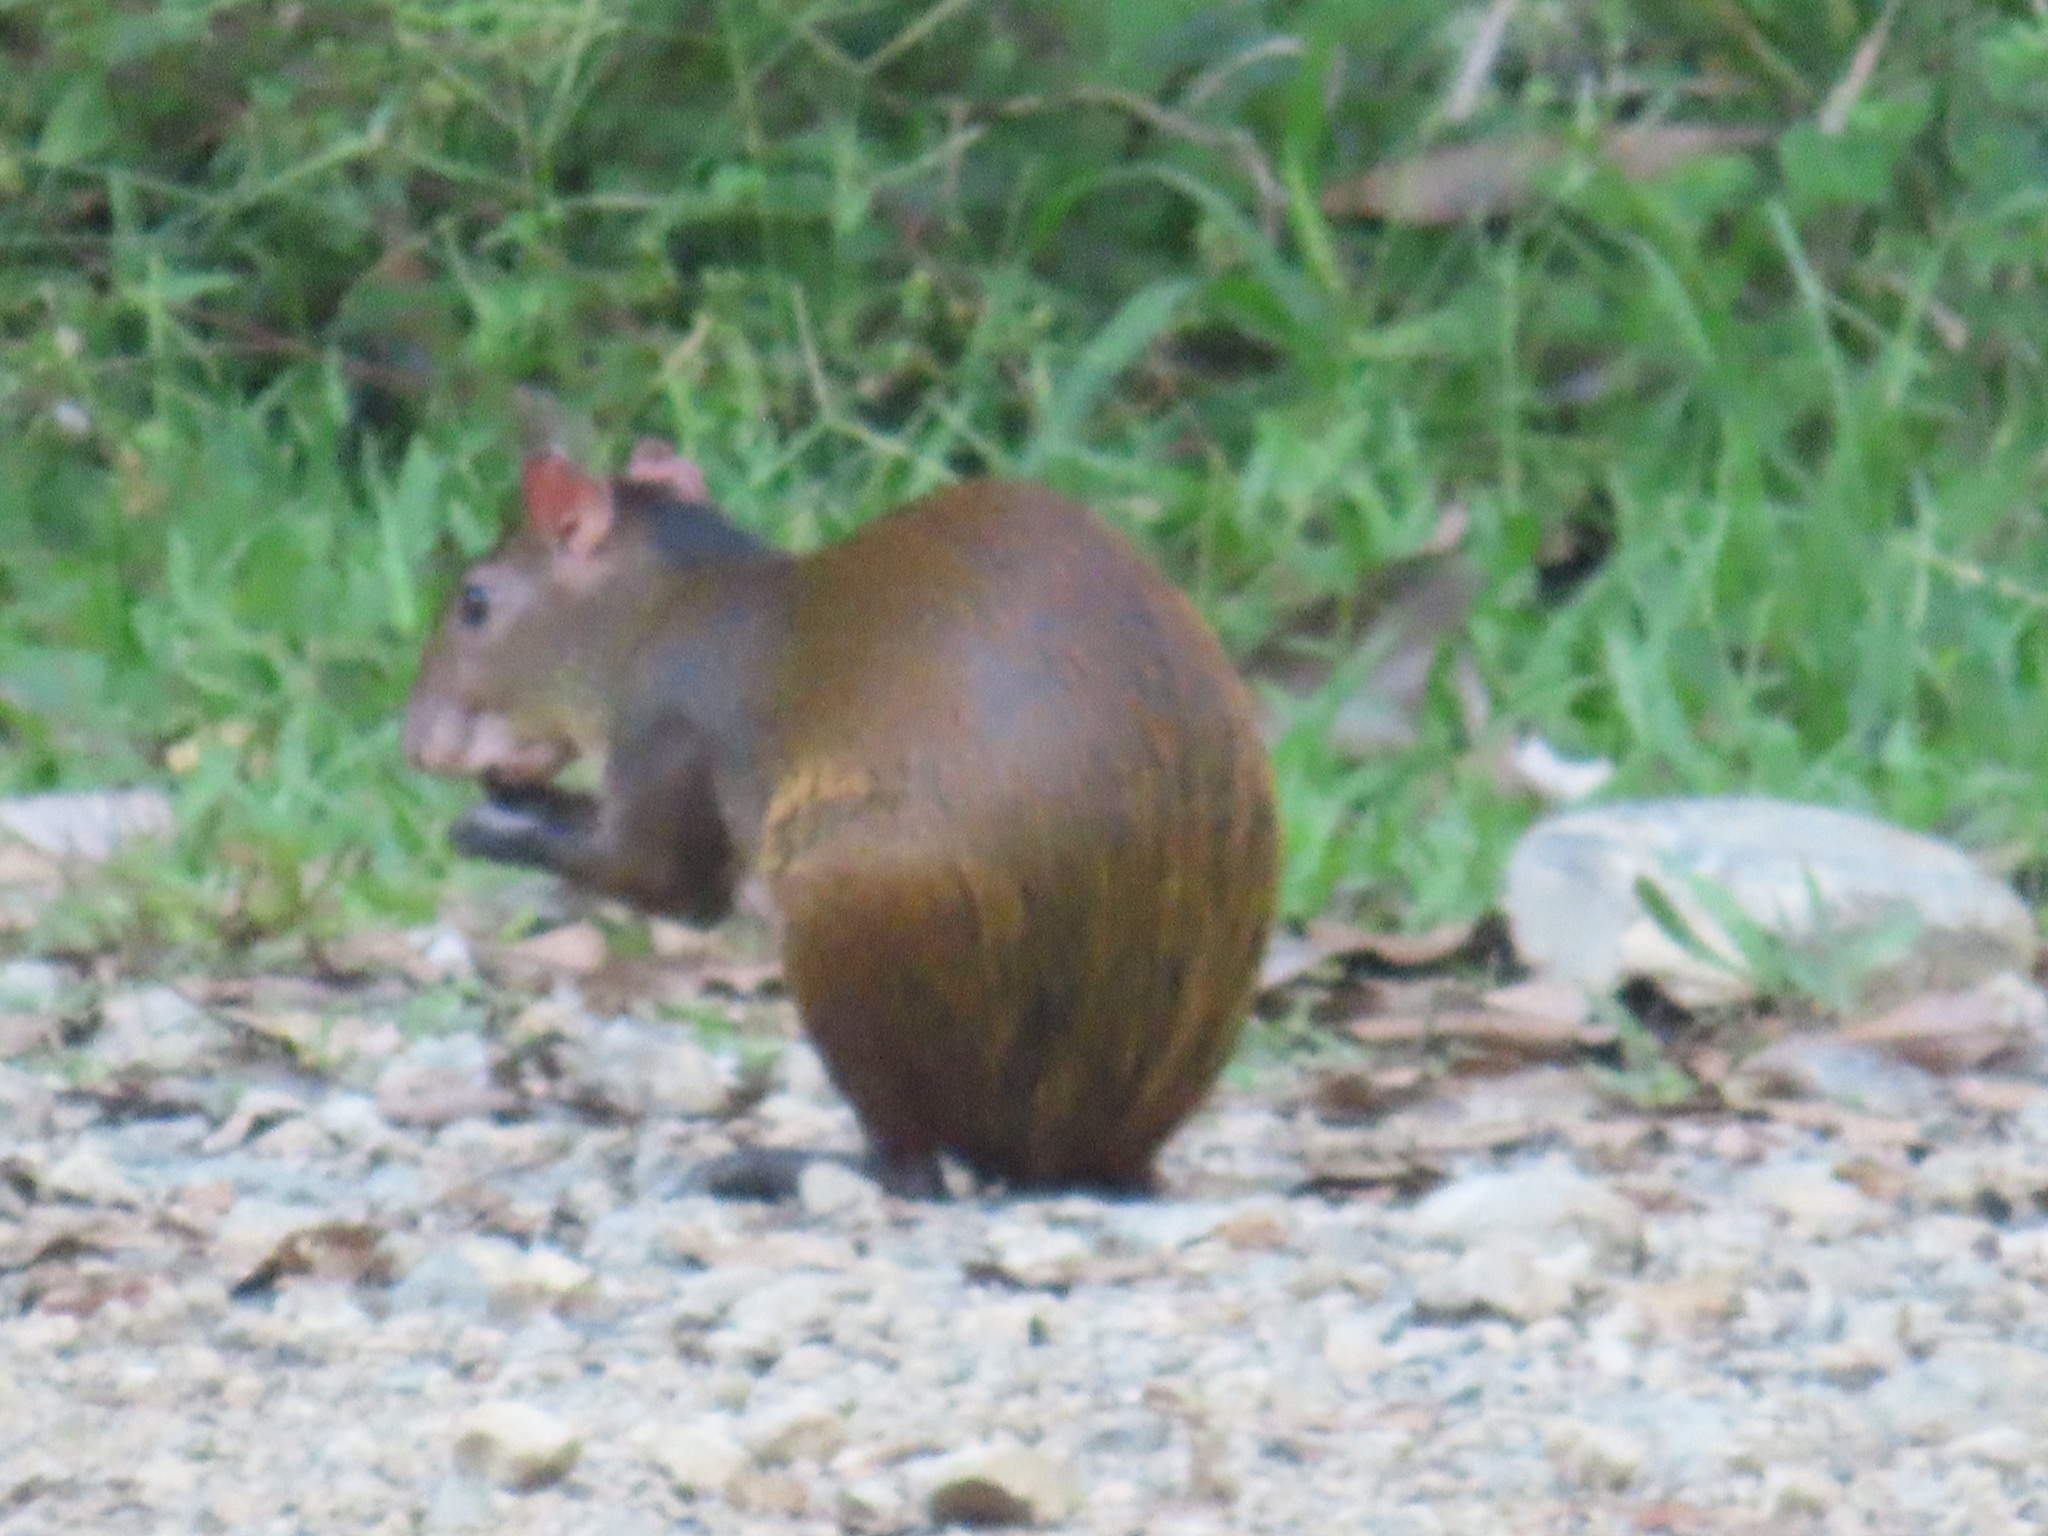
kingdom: Animalia
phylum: Chordata
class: Mammalia
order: Rodentia
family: Dasyproctidae
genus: Dasyprocta
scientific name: Dasyprocta punctata
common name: Central american agouti
